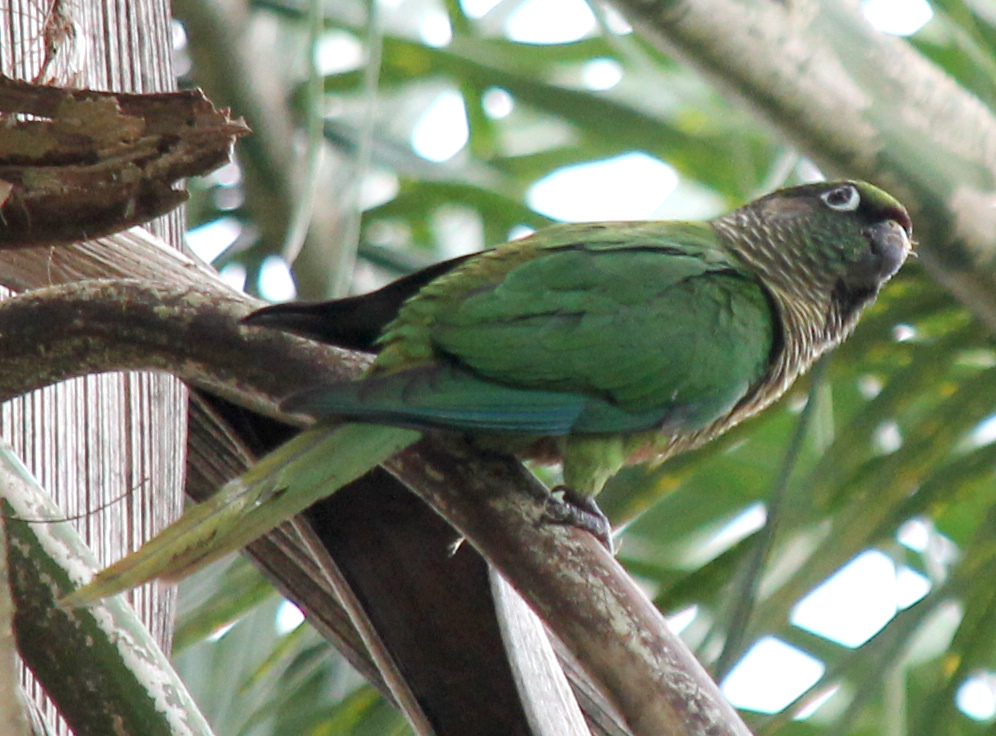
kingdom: Animalia
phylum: Chordata
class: Aves
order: Psittaciformes
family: Psittacidae
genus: Pyrrhura
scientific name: Pyrrhura frontalis
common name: Maroon-bellied parakeet
